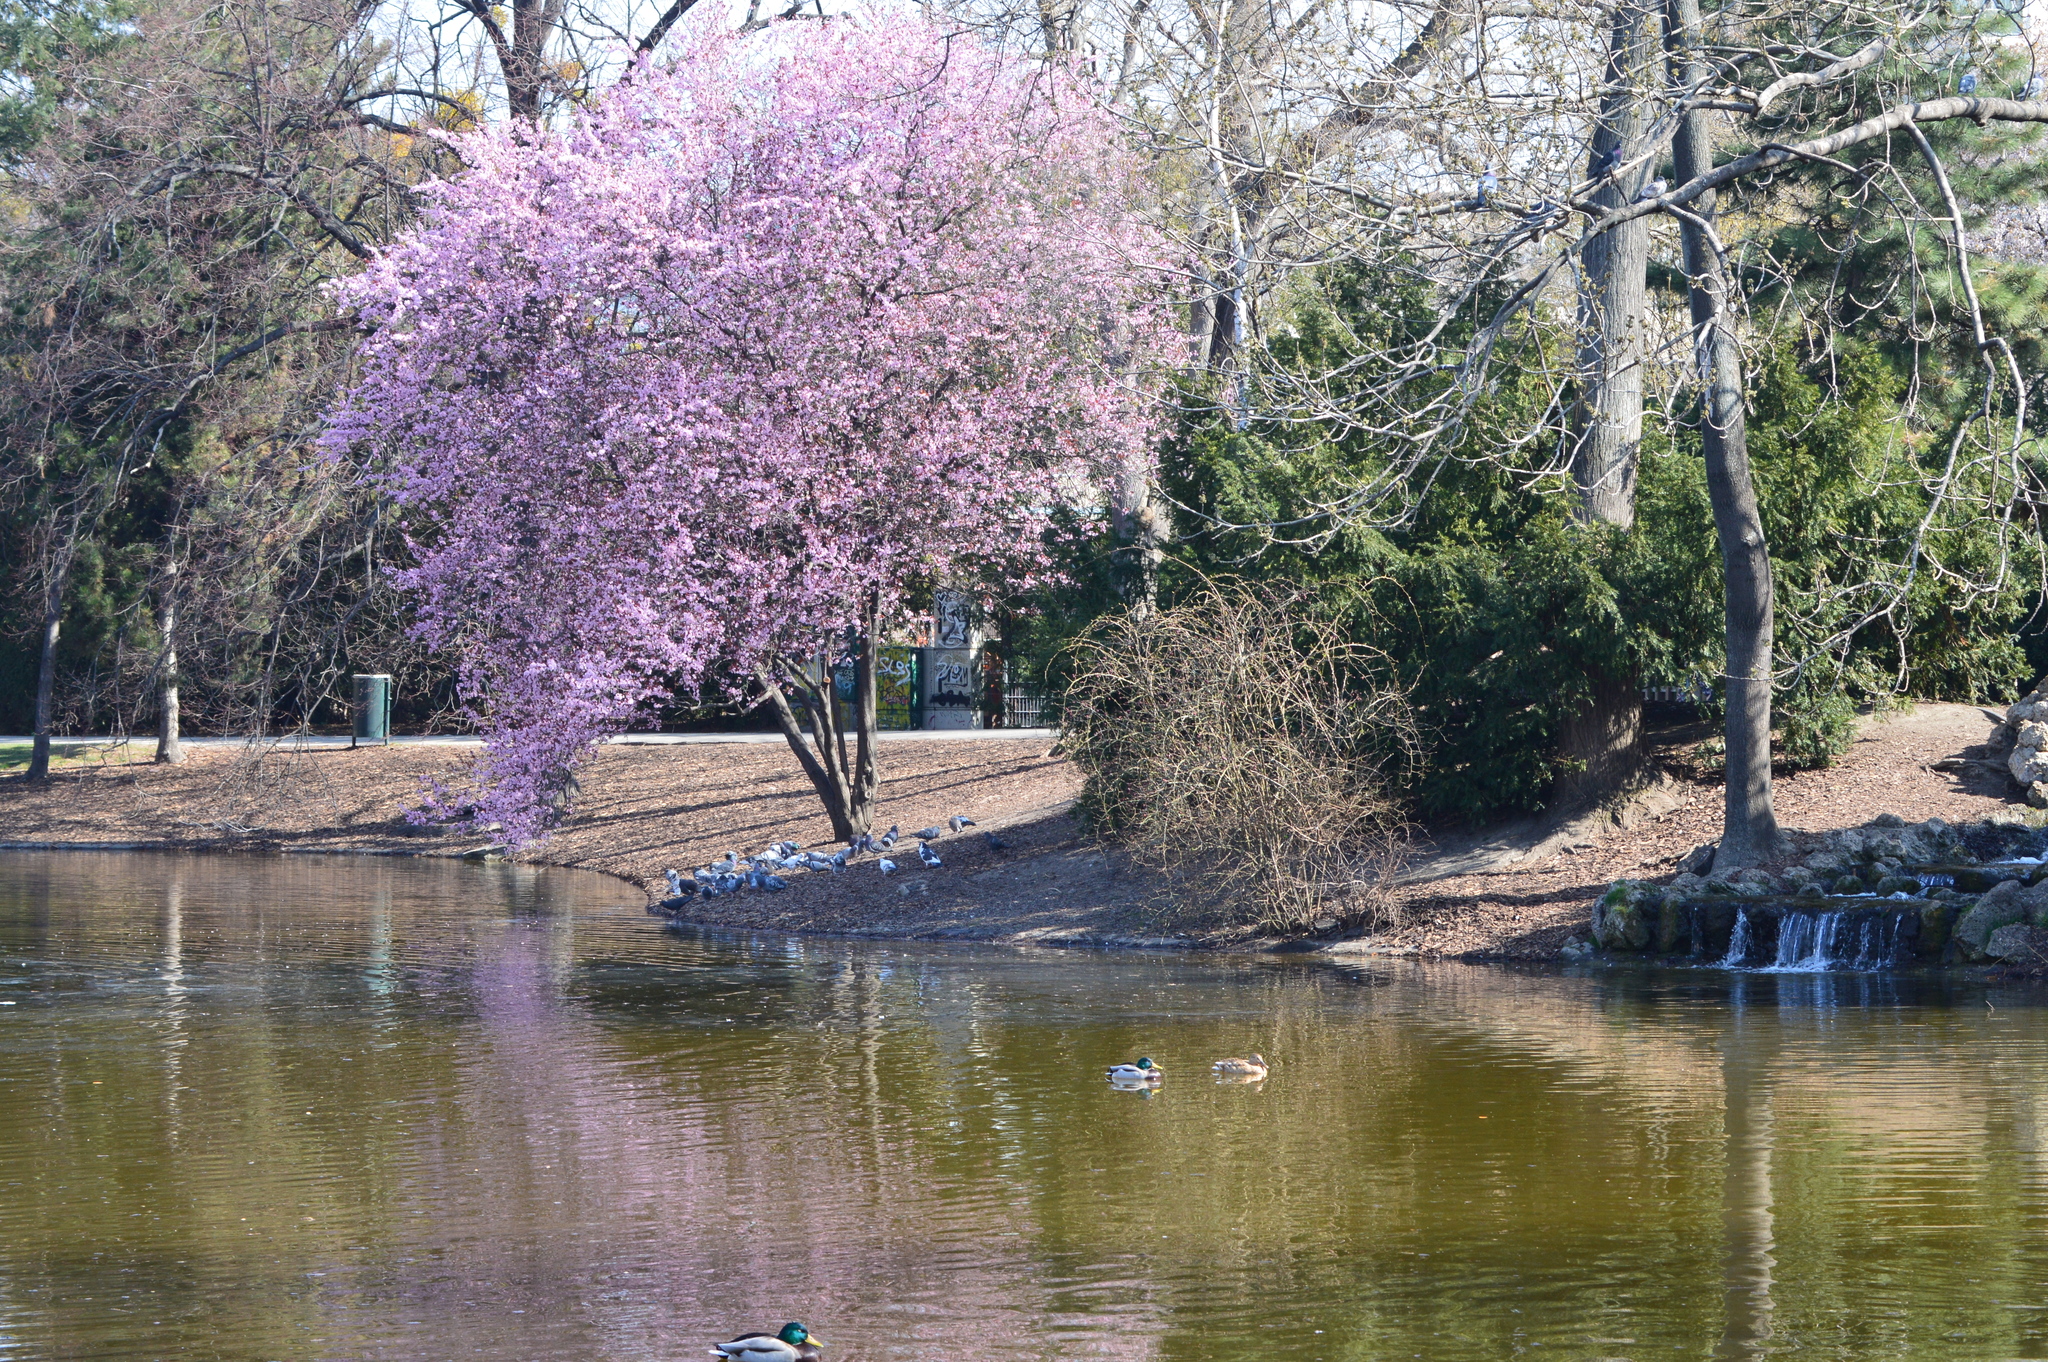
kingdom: Animalia
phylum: Chordata
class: Aves
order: Columbiformes
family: Columbidae
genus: Columba
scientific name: Columba livia
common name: Rock pigeon
